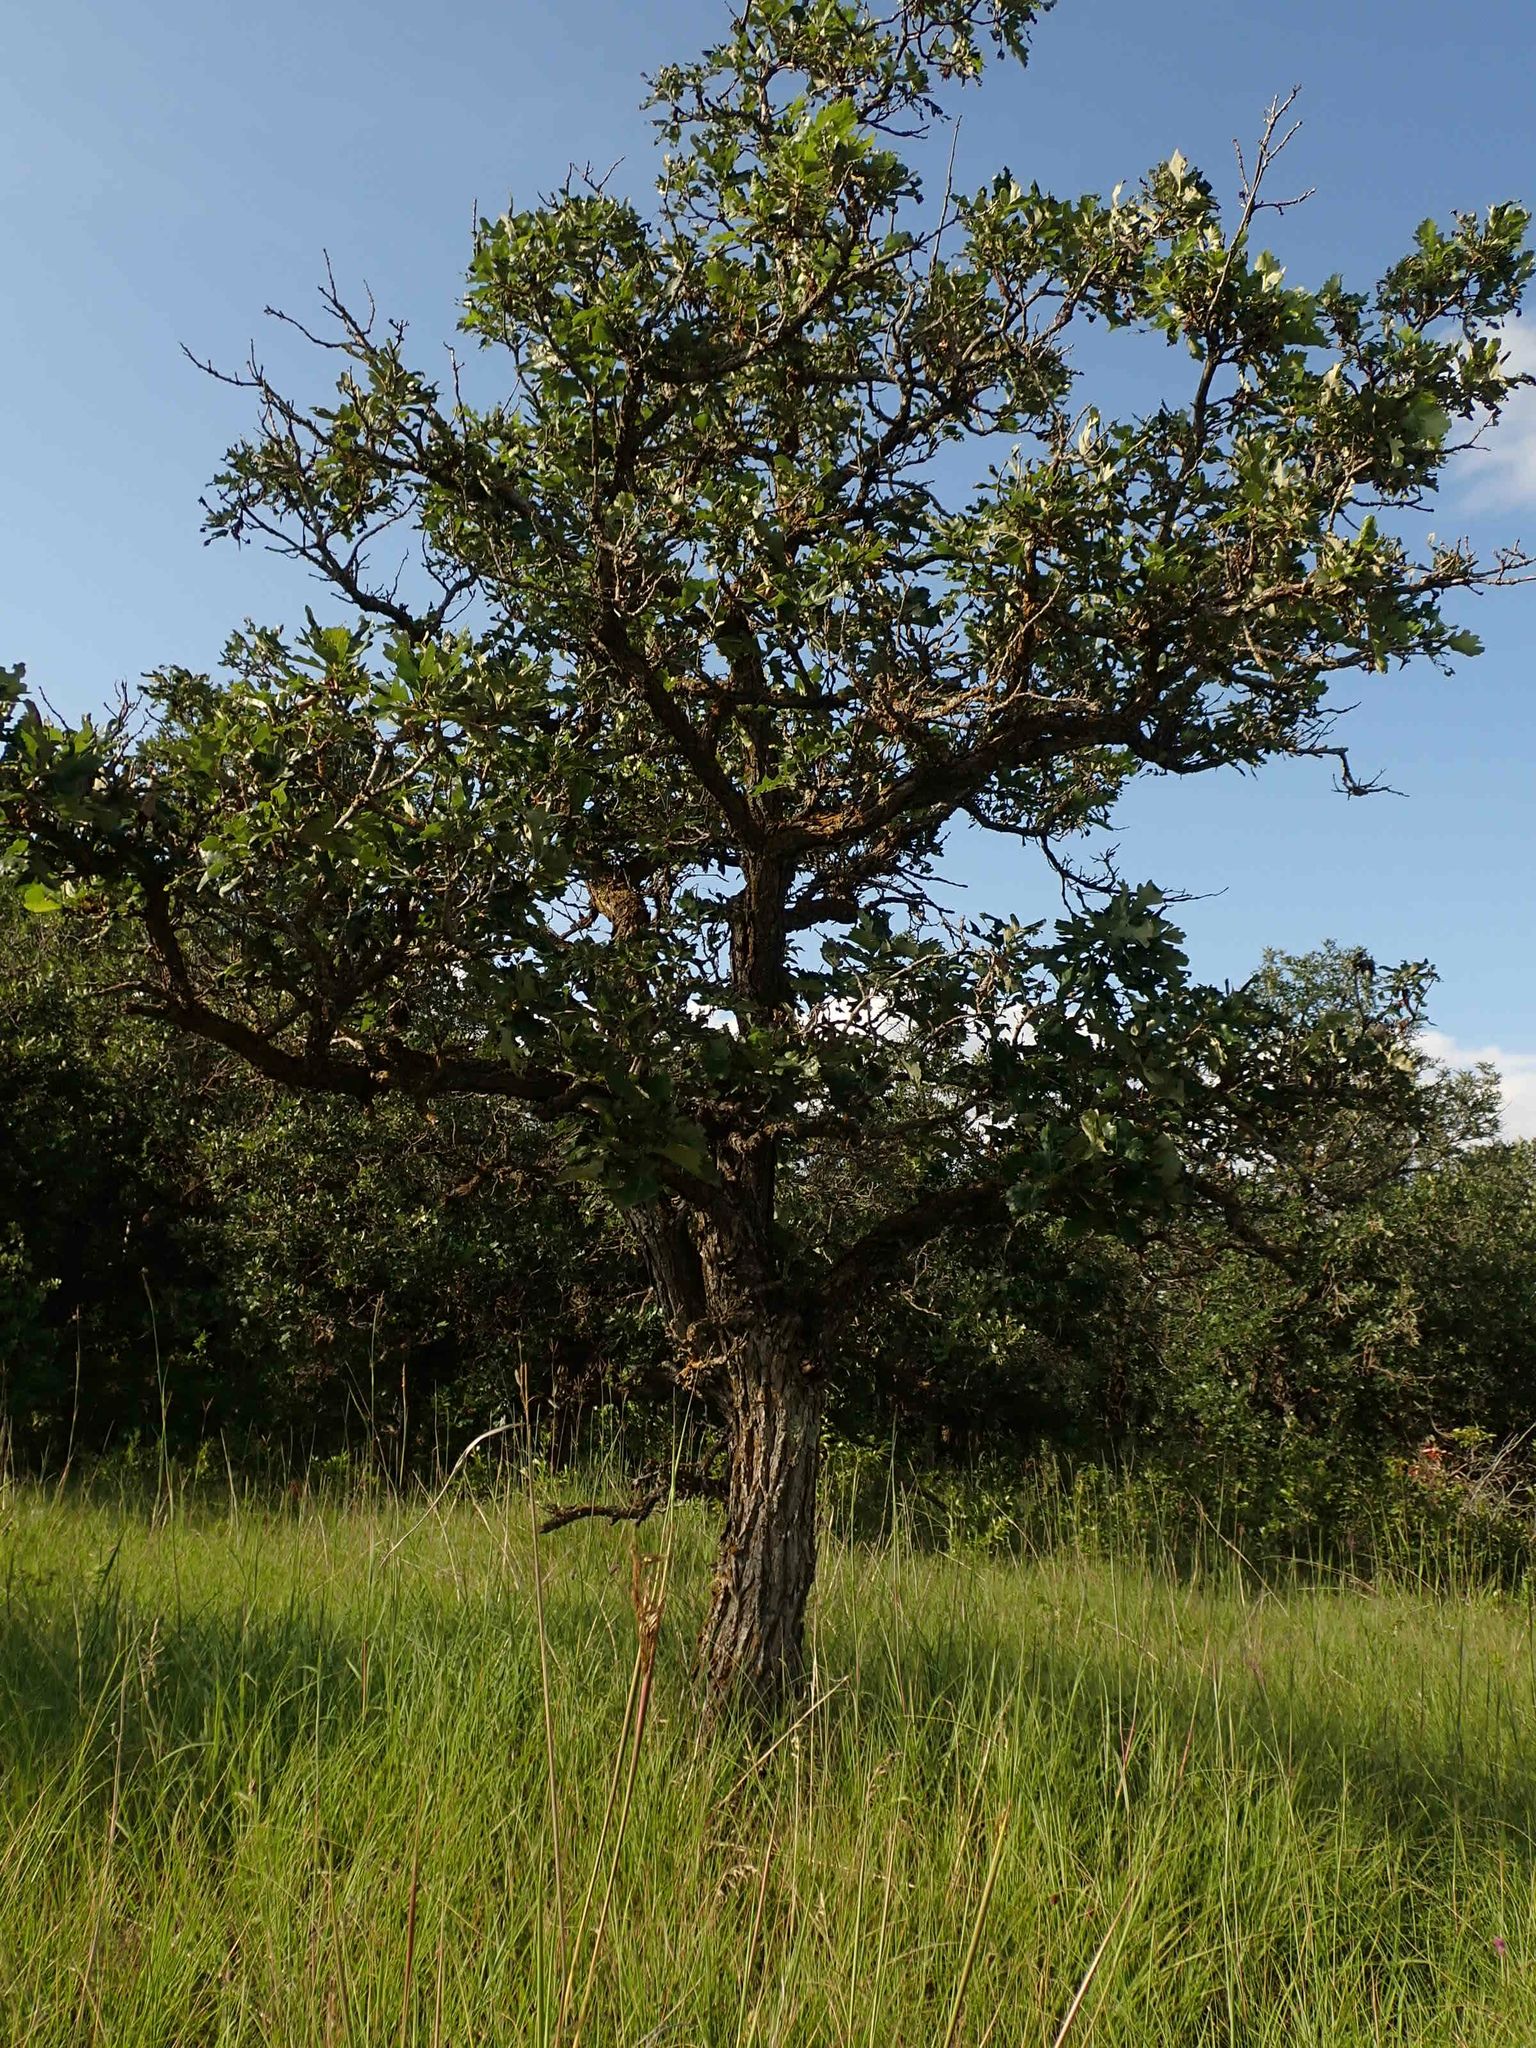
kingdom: Plantae
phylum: Tracheophyta
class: Magnoliopsida
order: Fagales
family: Fagaceae
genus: Quercus
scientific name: Quercus macrocarpa
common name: Bur oak
